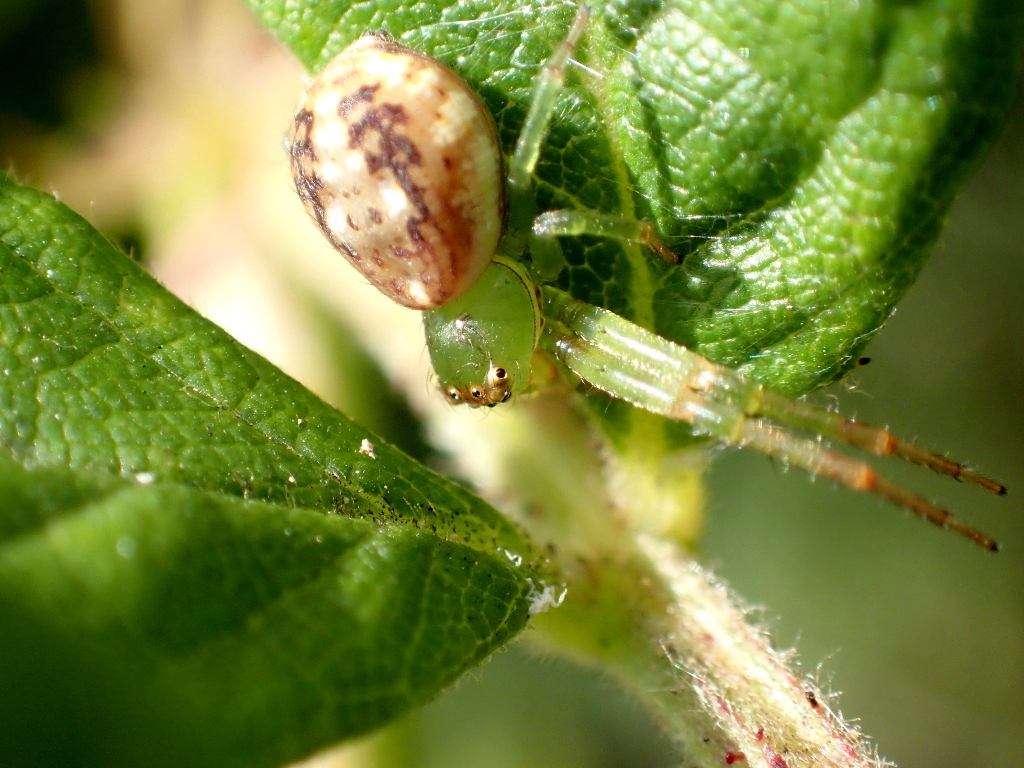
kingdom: Animalia
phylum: Arthropoda
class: Arachnida
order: Araneae
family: Thomisidae
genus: Diaea
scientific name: Diaea ambara
